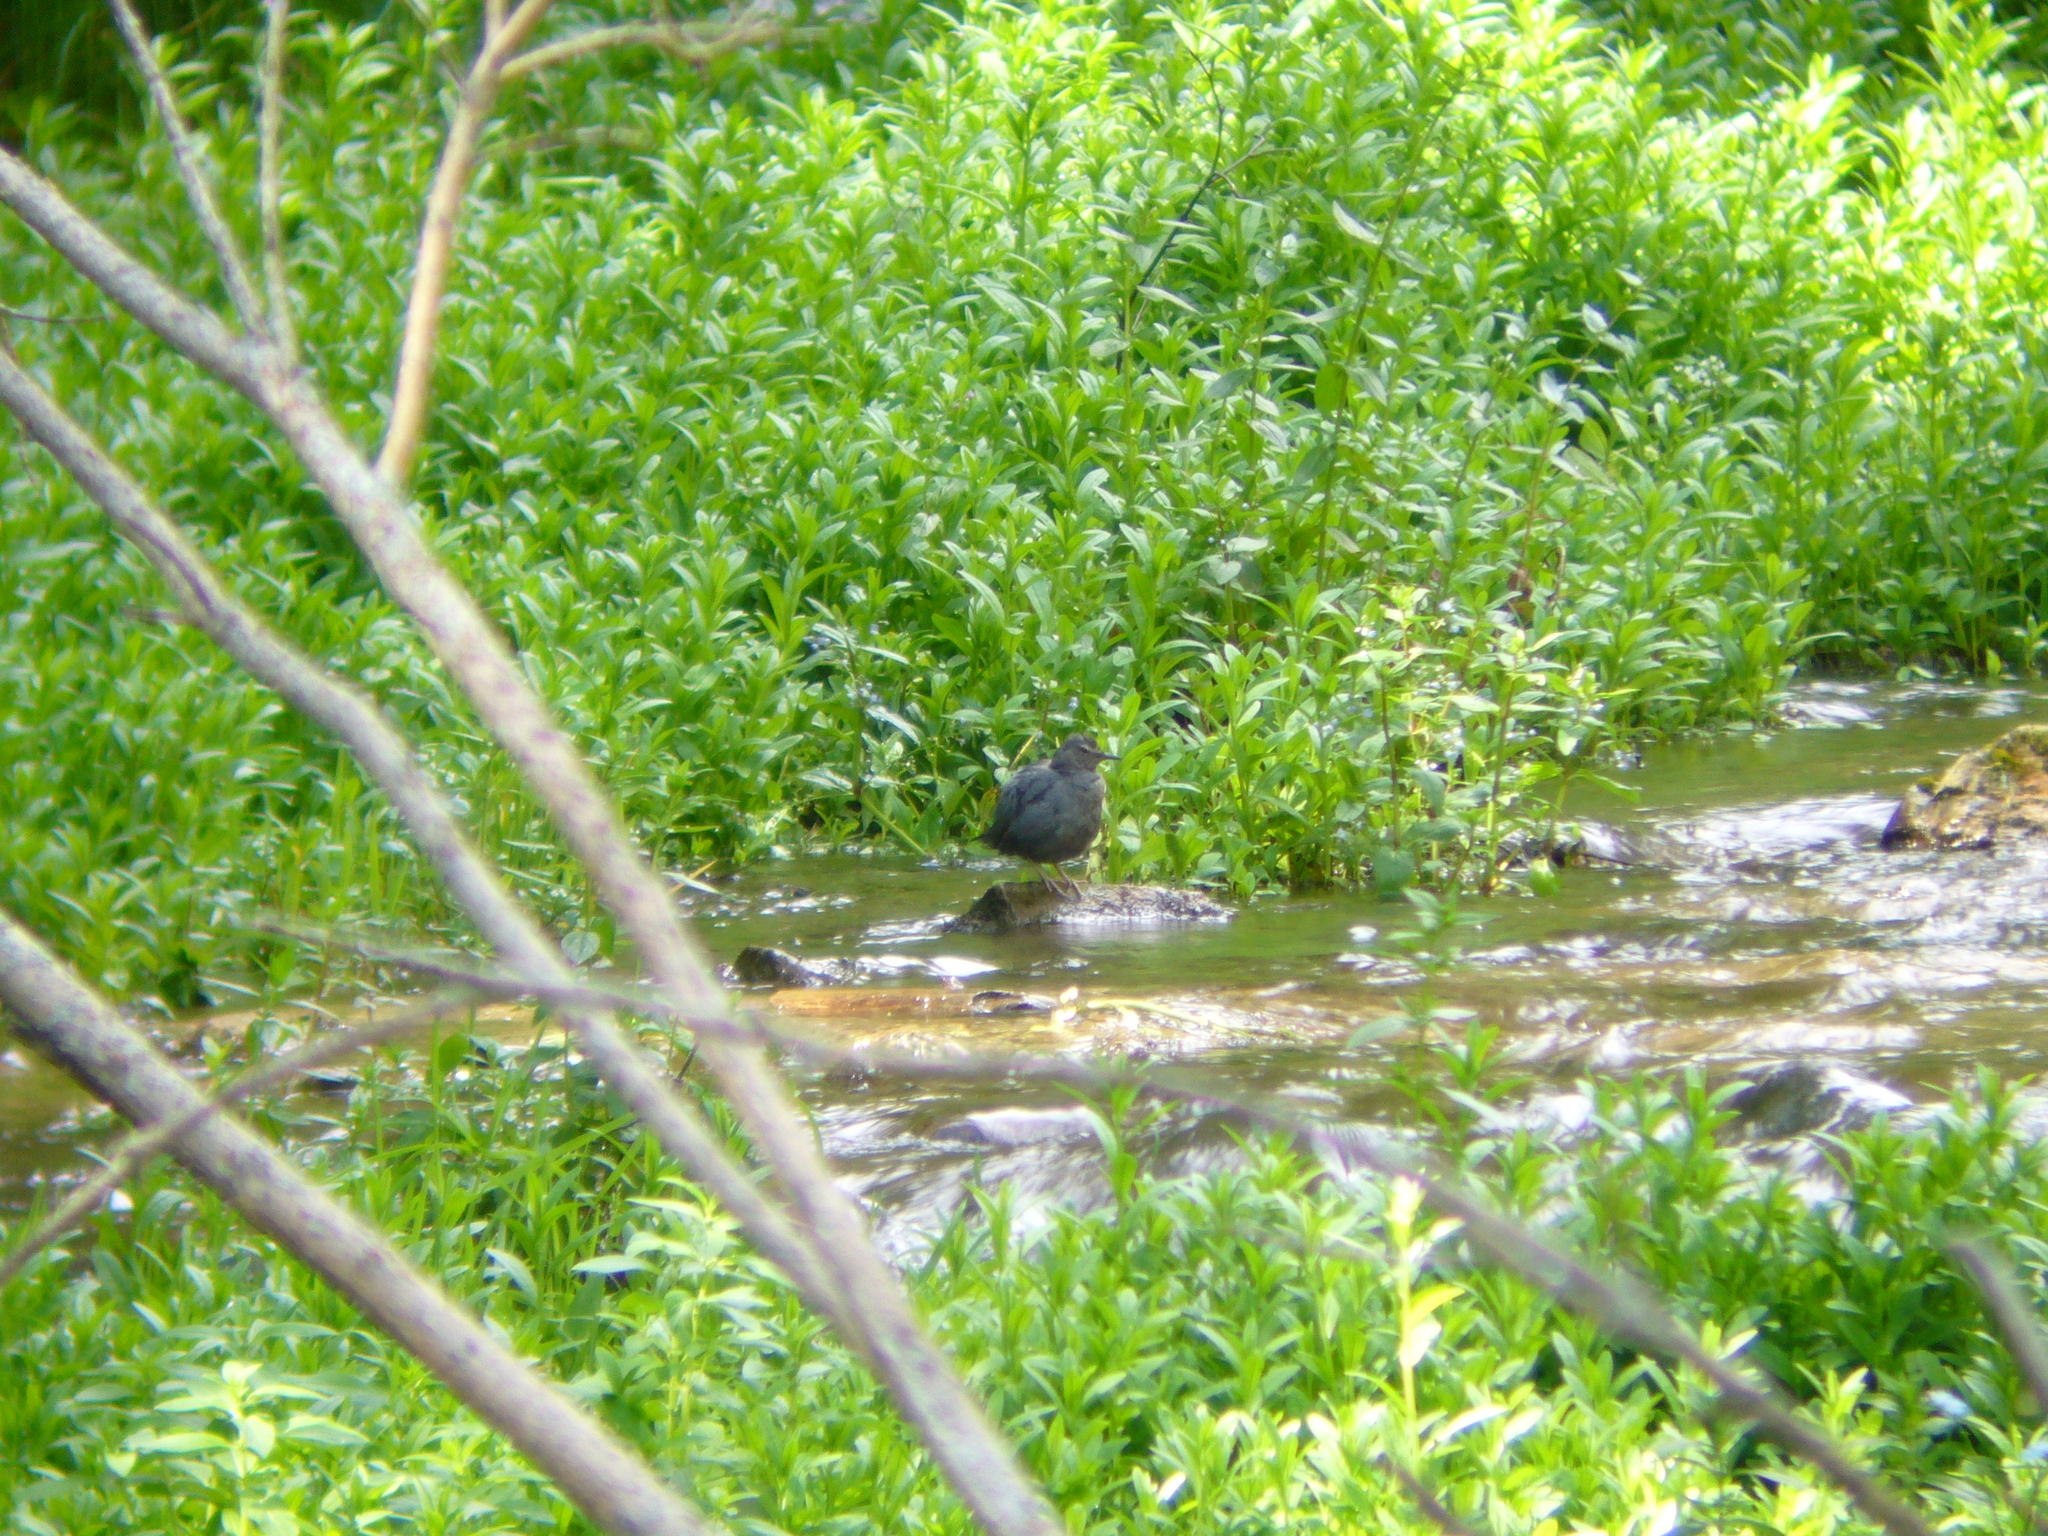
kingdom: Animalia
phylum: Chordata
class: Aves
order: Passeriformes
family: Cinclidae
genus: Cinclus
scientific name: Cinclus mexicanus
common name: American dipper
